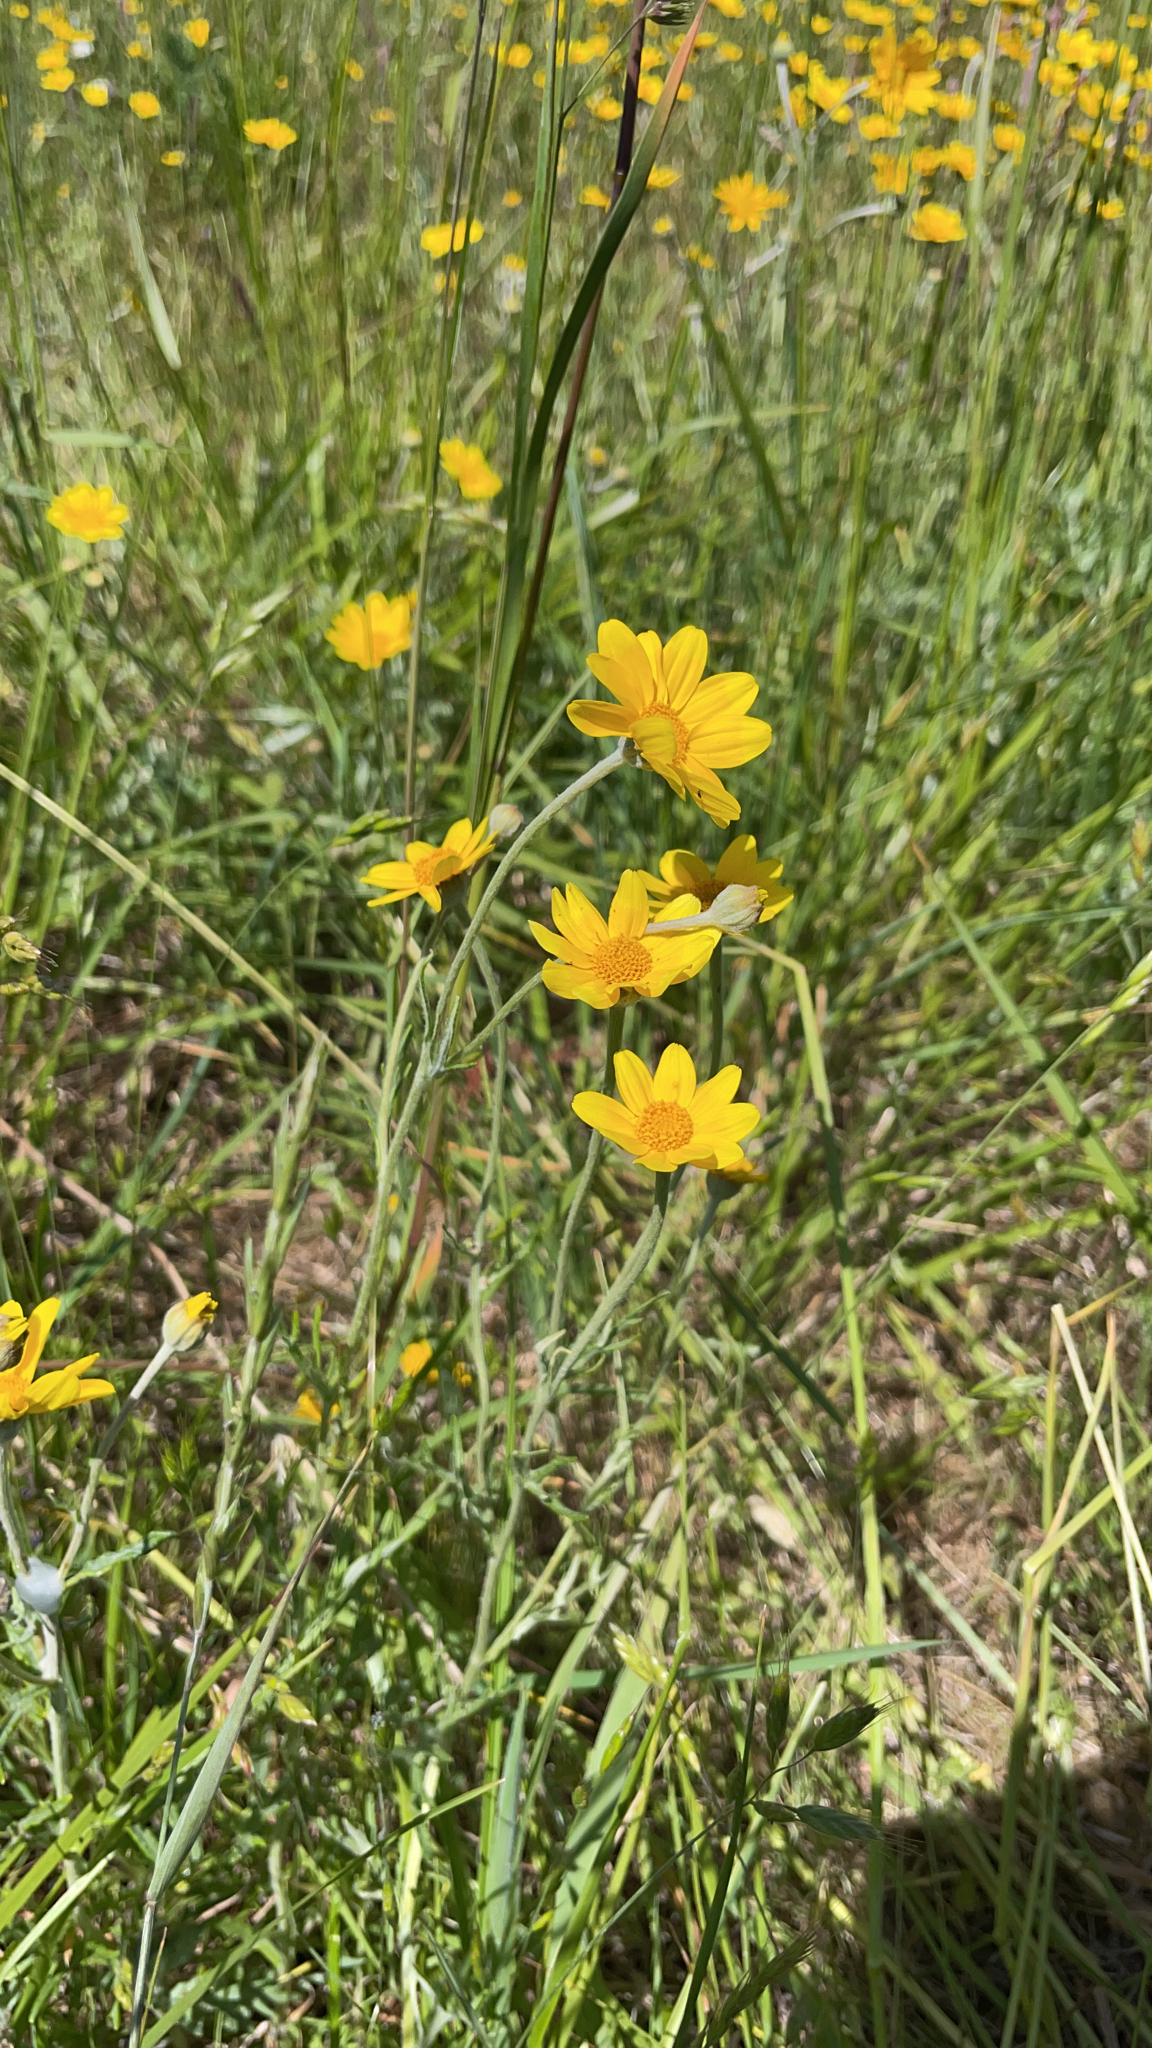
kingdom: Plantae
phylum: Tracheophyta
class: Magnoliopsida
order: Asterales
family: Asteraceae
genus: Eriophyllum
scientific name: Eriophyllum lanatum
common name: Common woolly-sunflower
